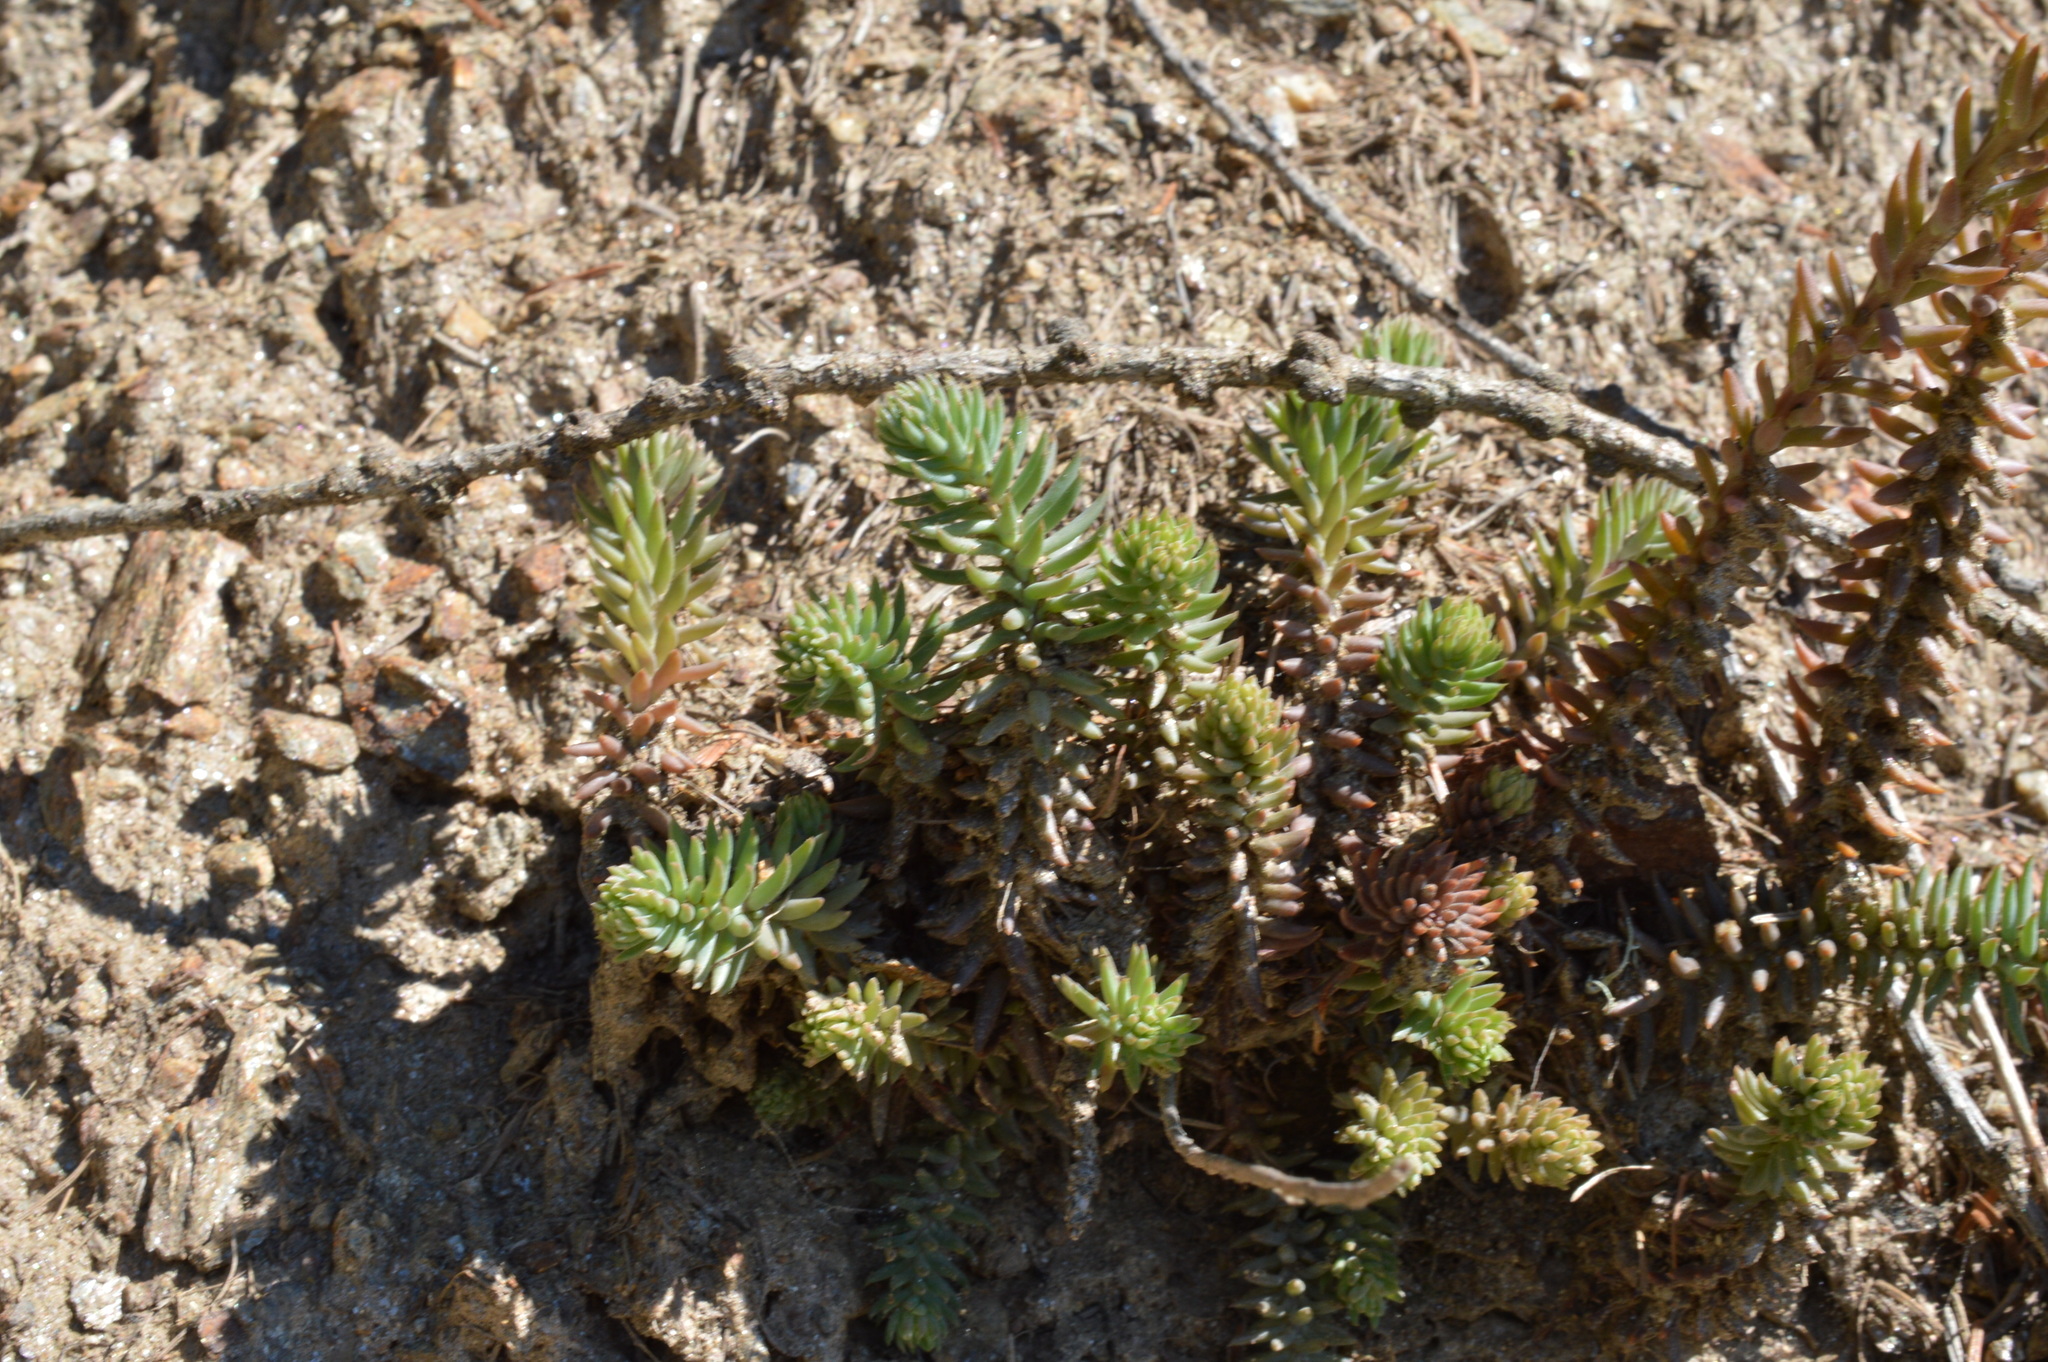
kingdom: Plantae
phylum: Tracheophyta
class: Magnoliopsida
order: Saxifragales
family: Crassulaceae
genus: Petrosedum
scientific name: Petrosedum montanum
